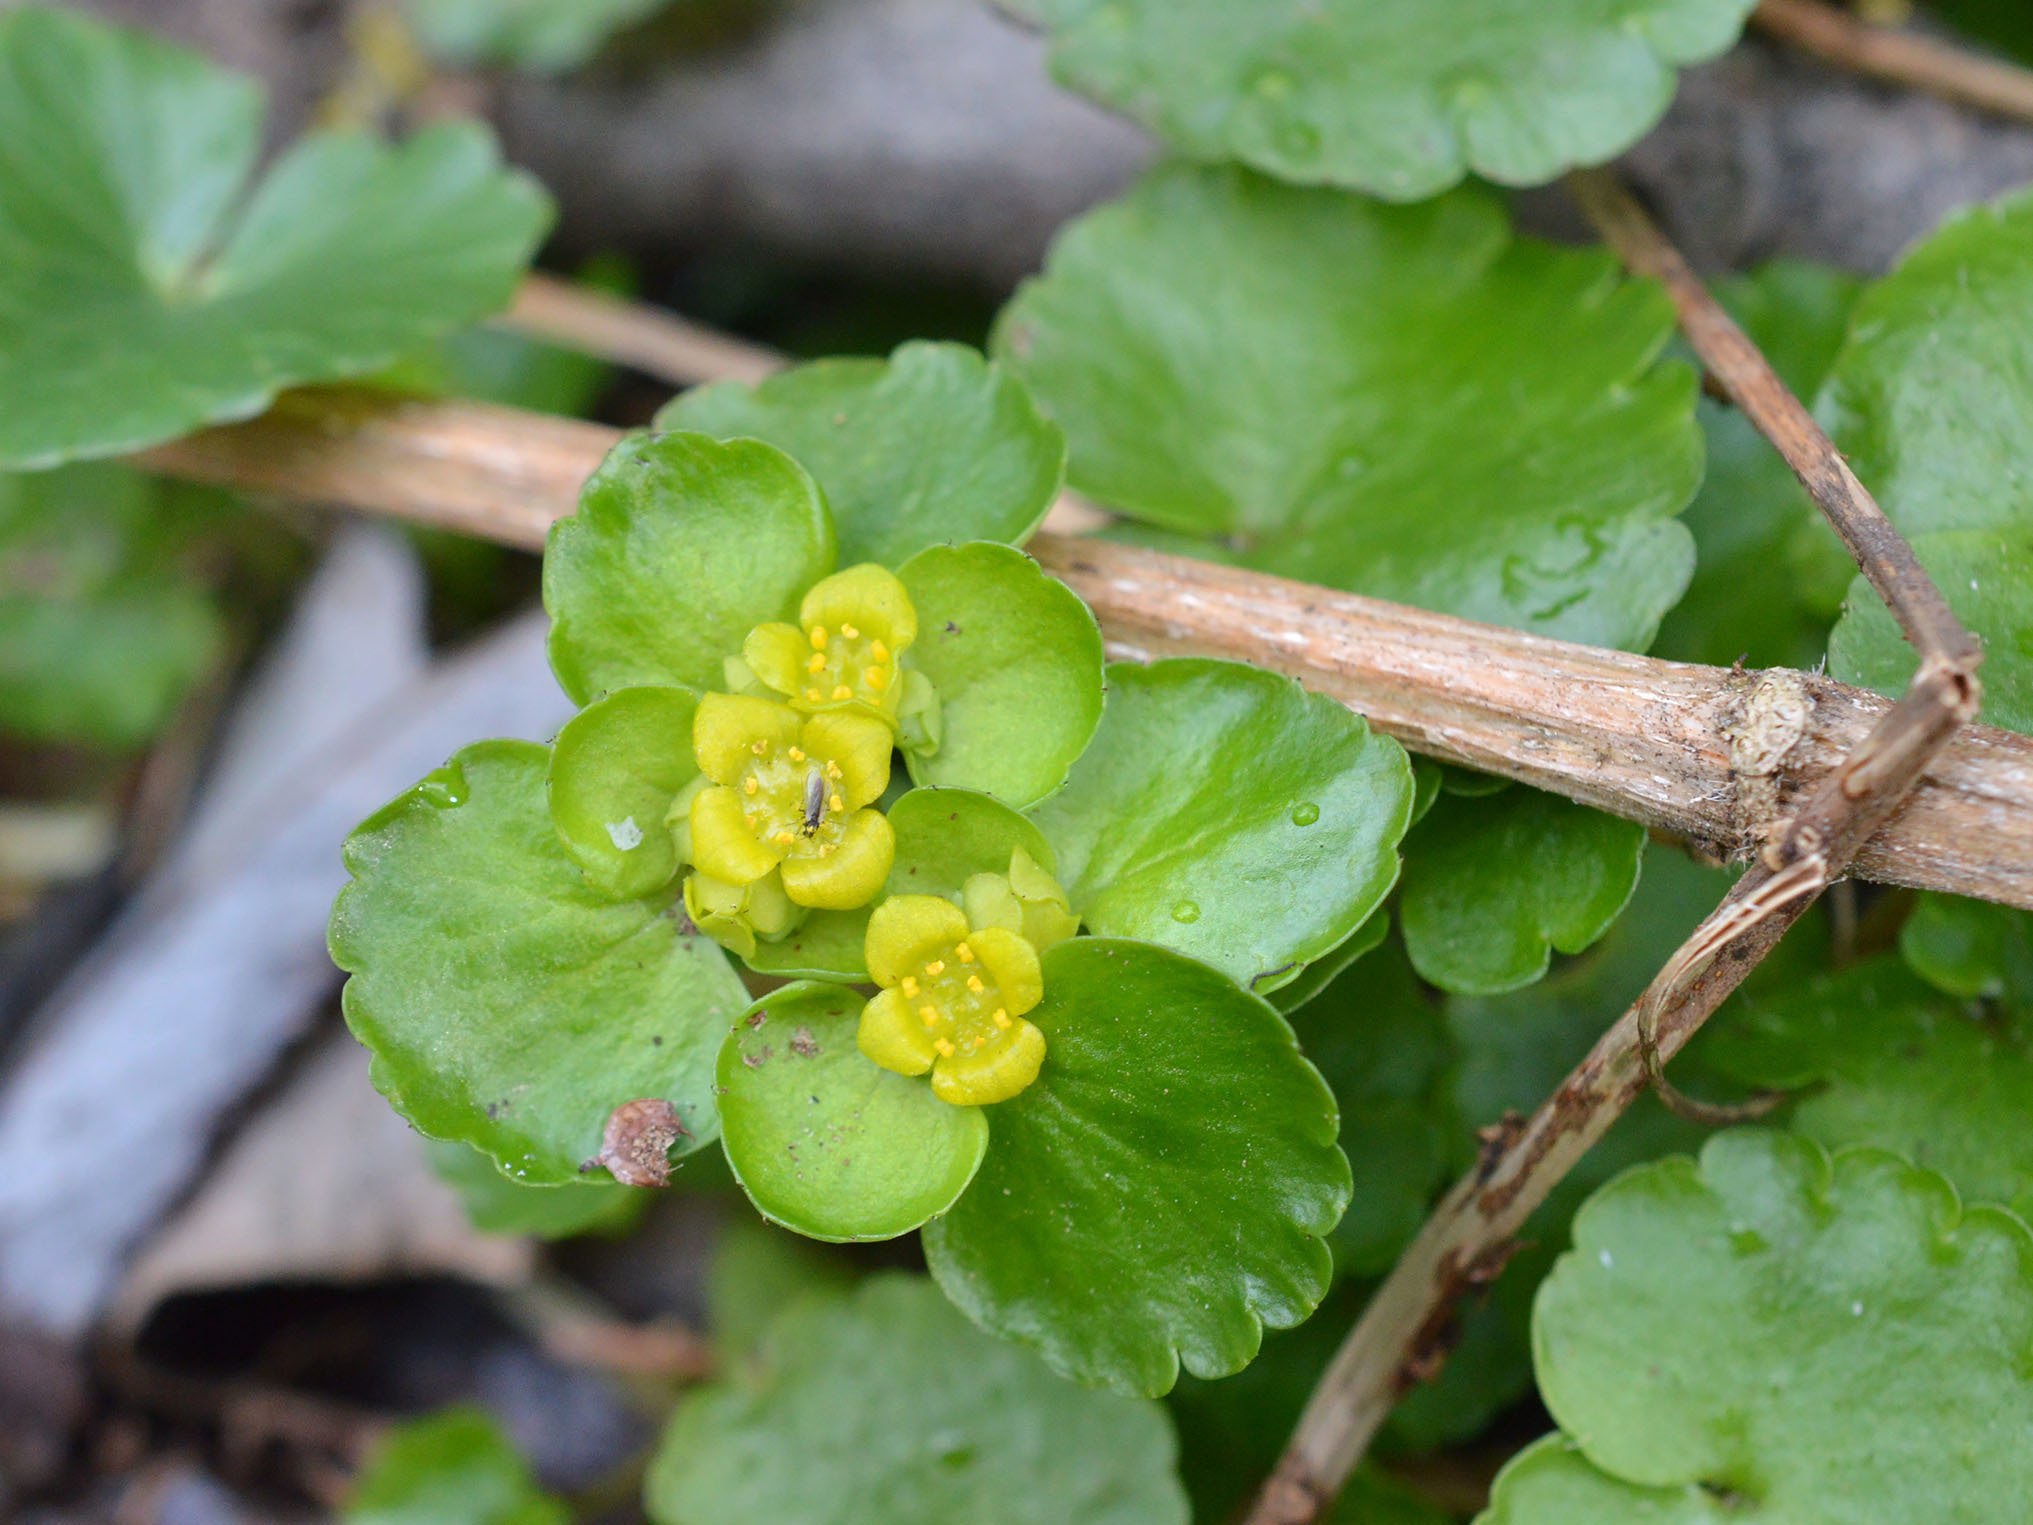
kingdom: Plantae
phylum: Tracheophyta
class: Magnoliopsida
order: Saxifragales
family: Saxifragaceae
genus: Chrysosplenium
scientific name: Chrysosplenium alternifolium
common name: Alternate-leaved golden-saxifrage
